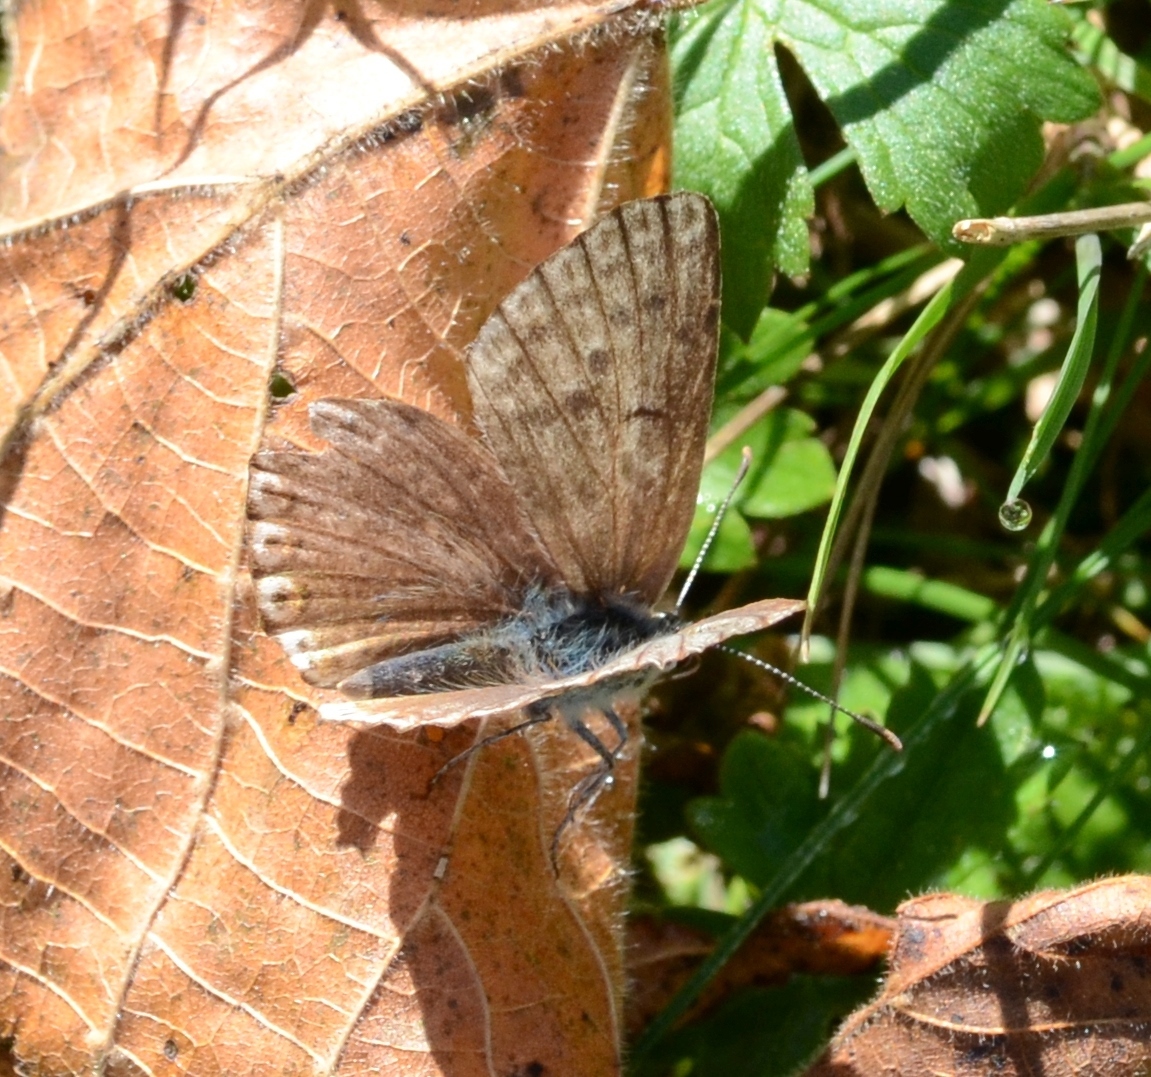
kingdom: Animalia
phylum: Arthropoda
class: Insecta
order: Lepidoptera
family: Lycaenidae
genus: Lysandra
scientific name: Lysandra coridon
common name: Chalkhill blue
